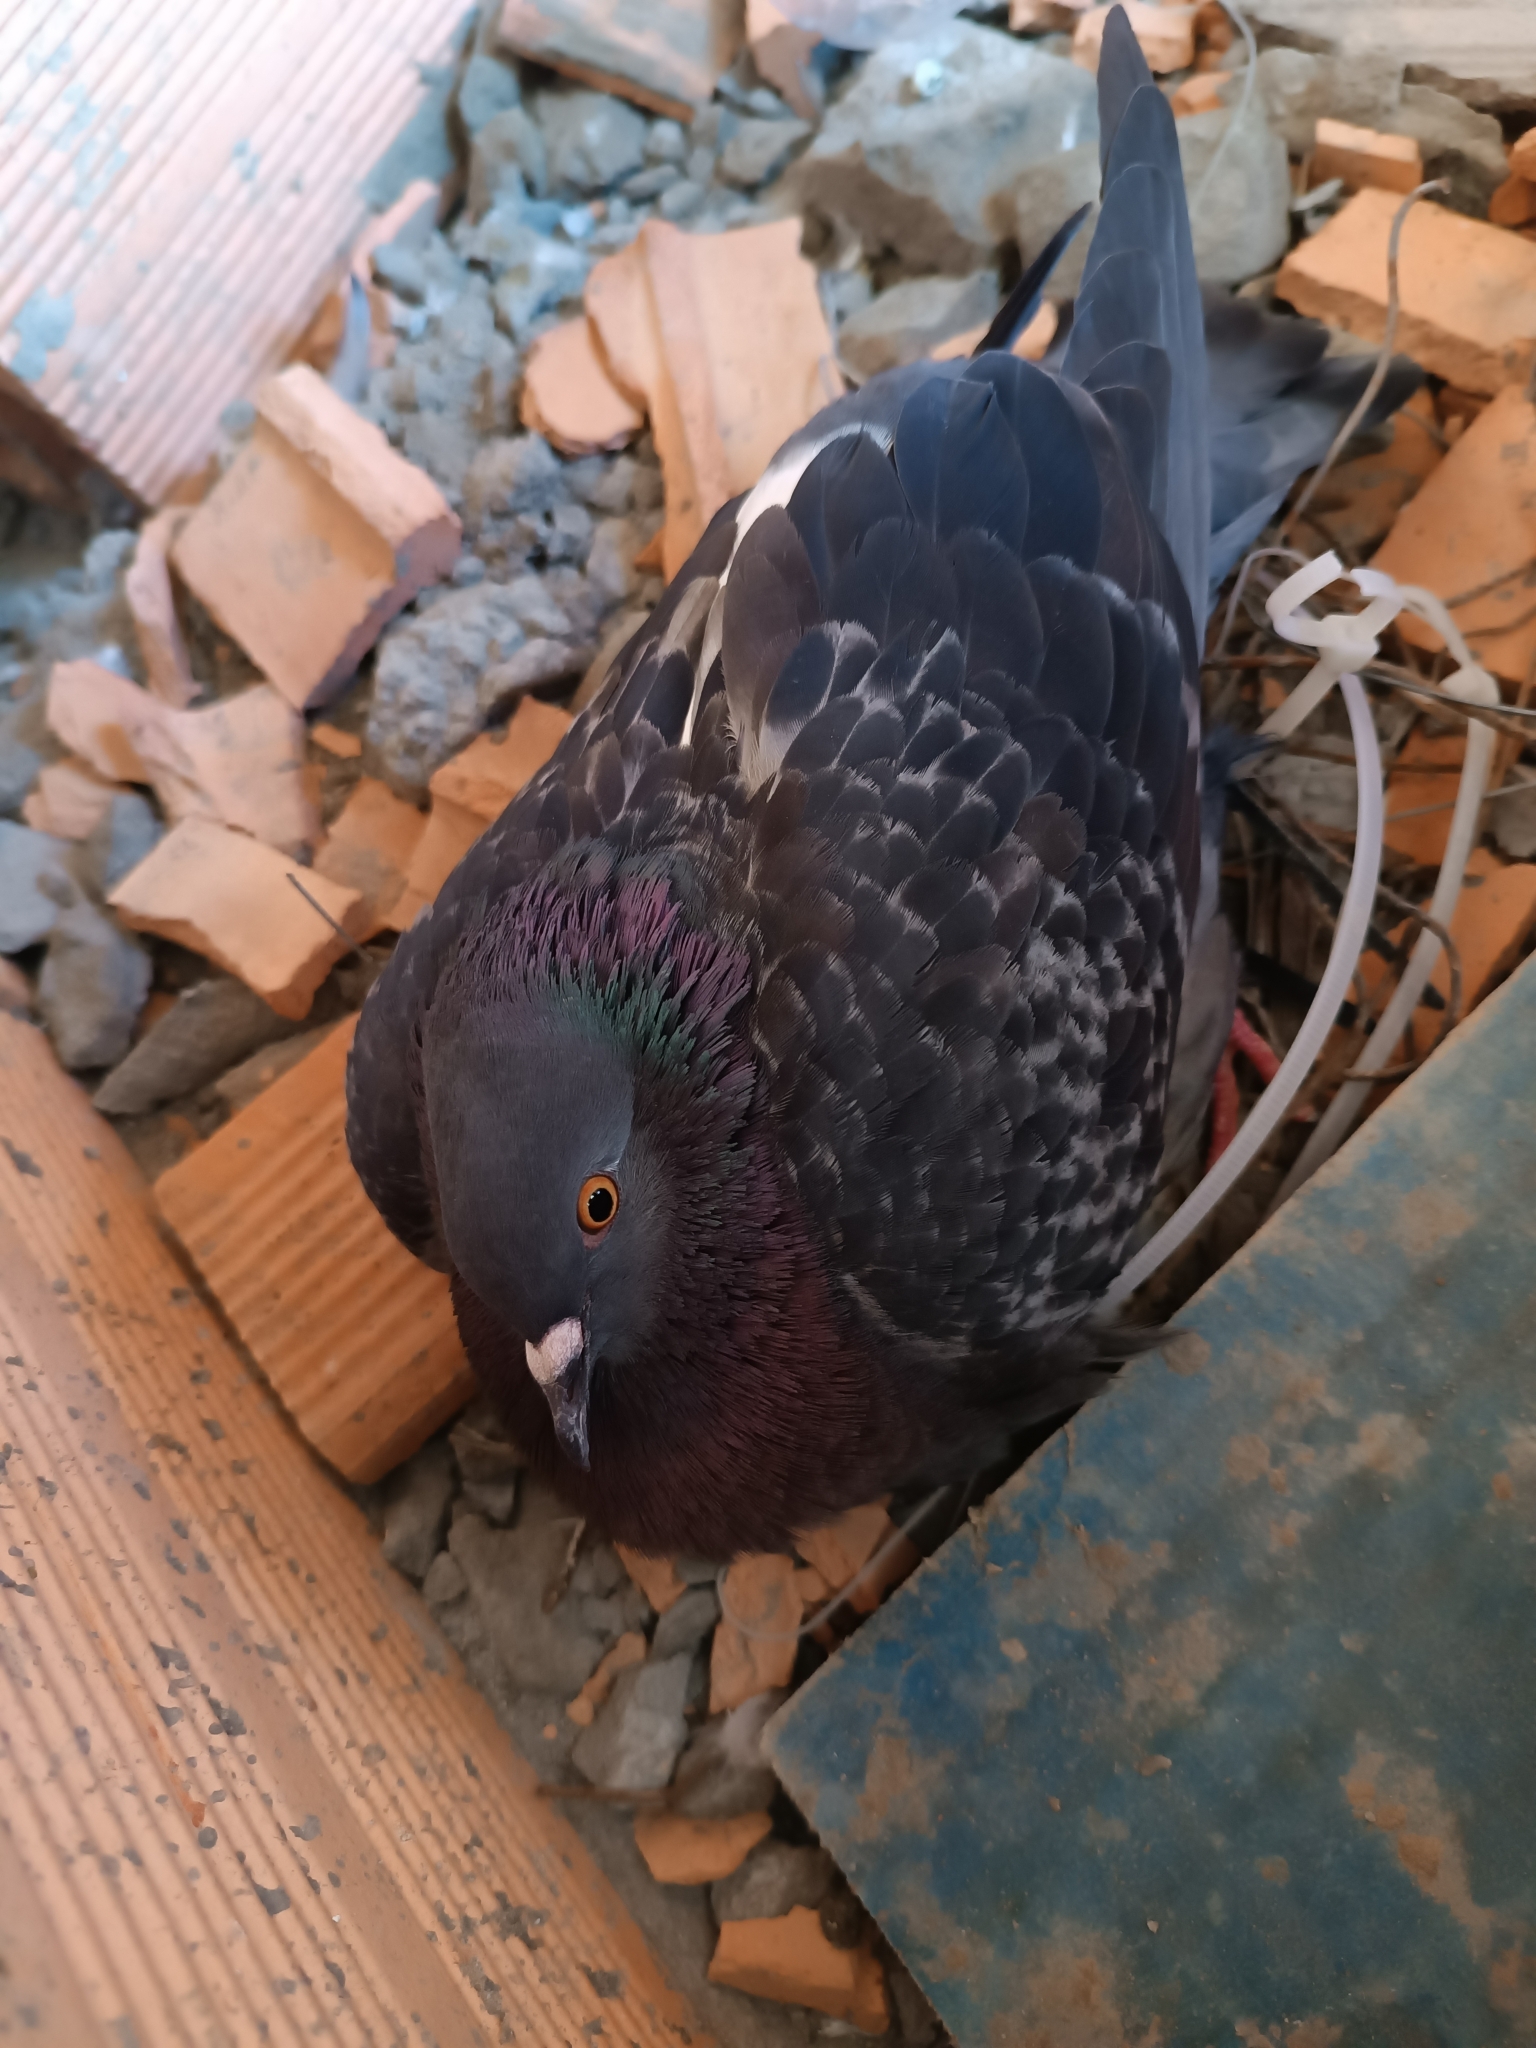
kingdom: Animalia
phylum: Chordata
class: Aves
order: Columbiformes
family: Columbidae
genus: Columba
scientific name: Columba livia
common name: Rock pigeon
